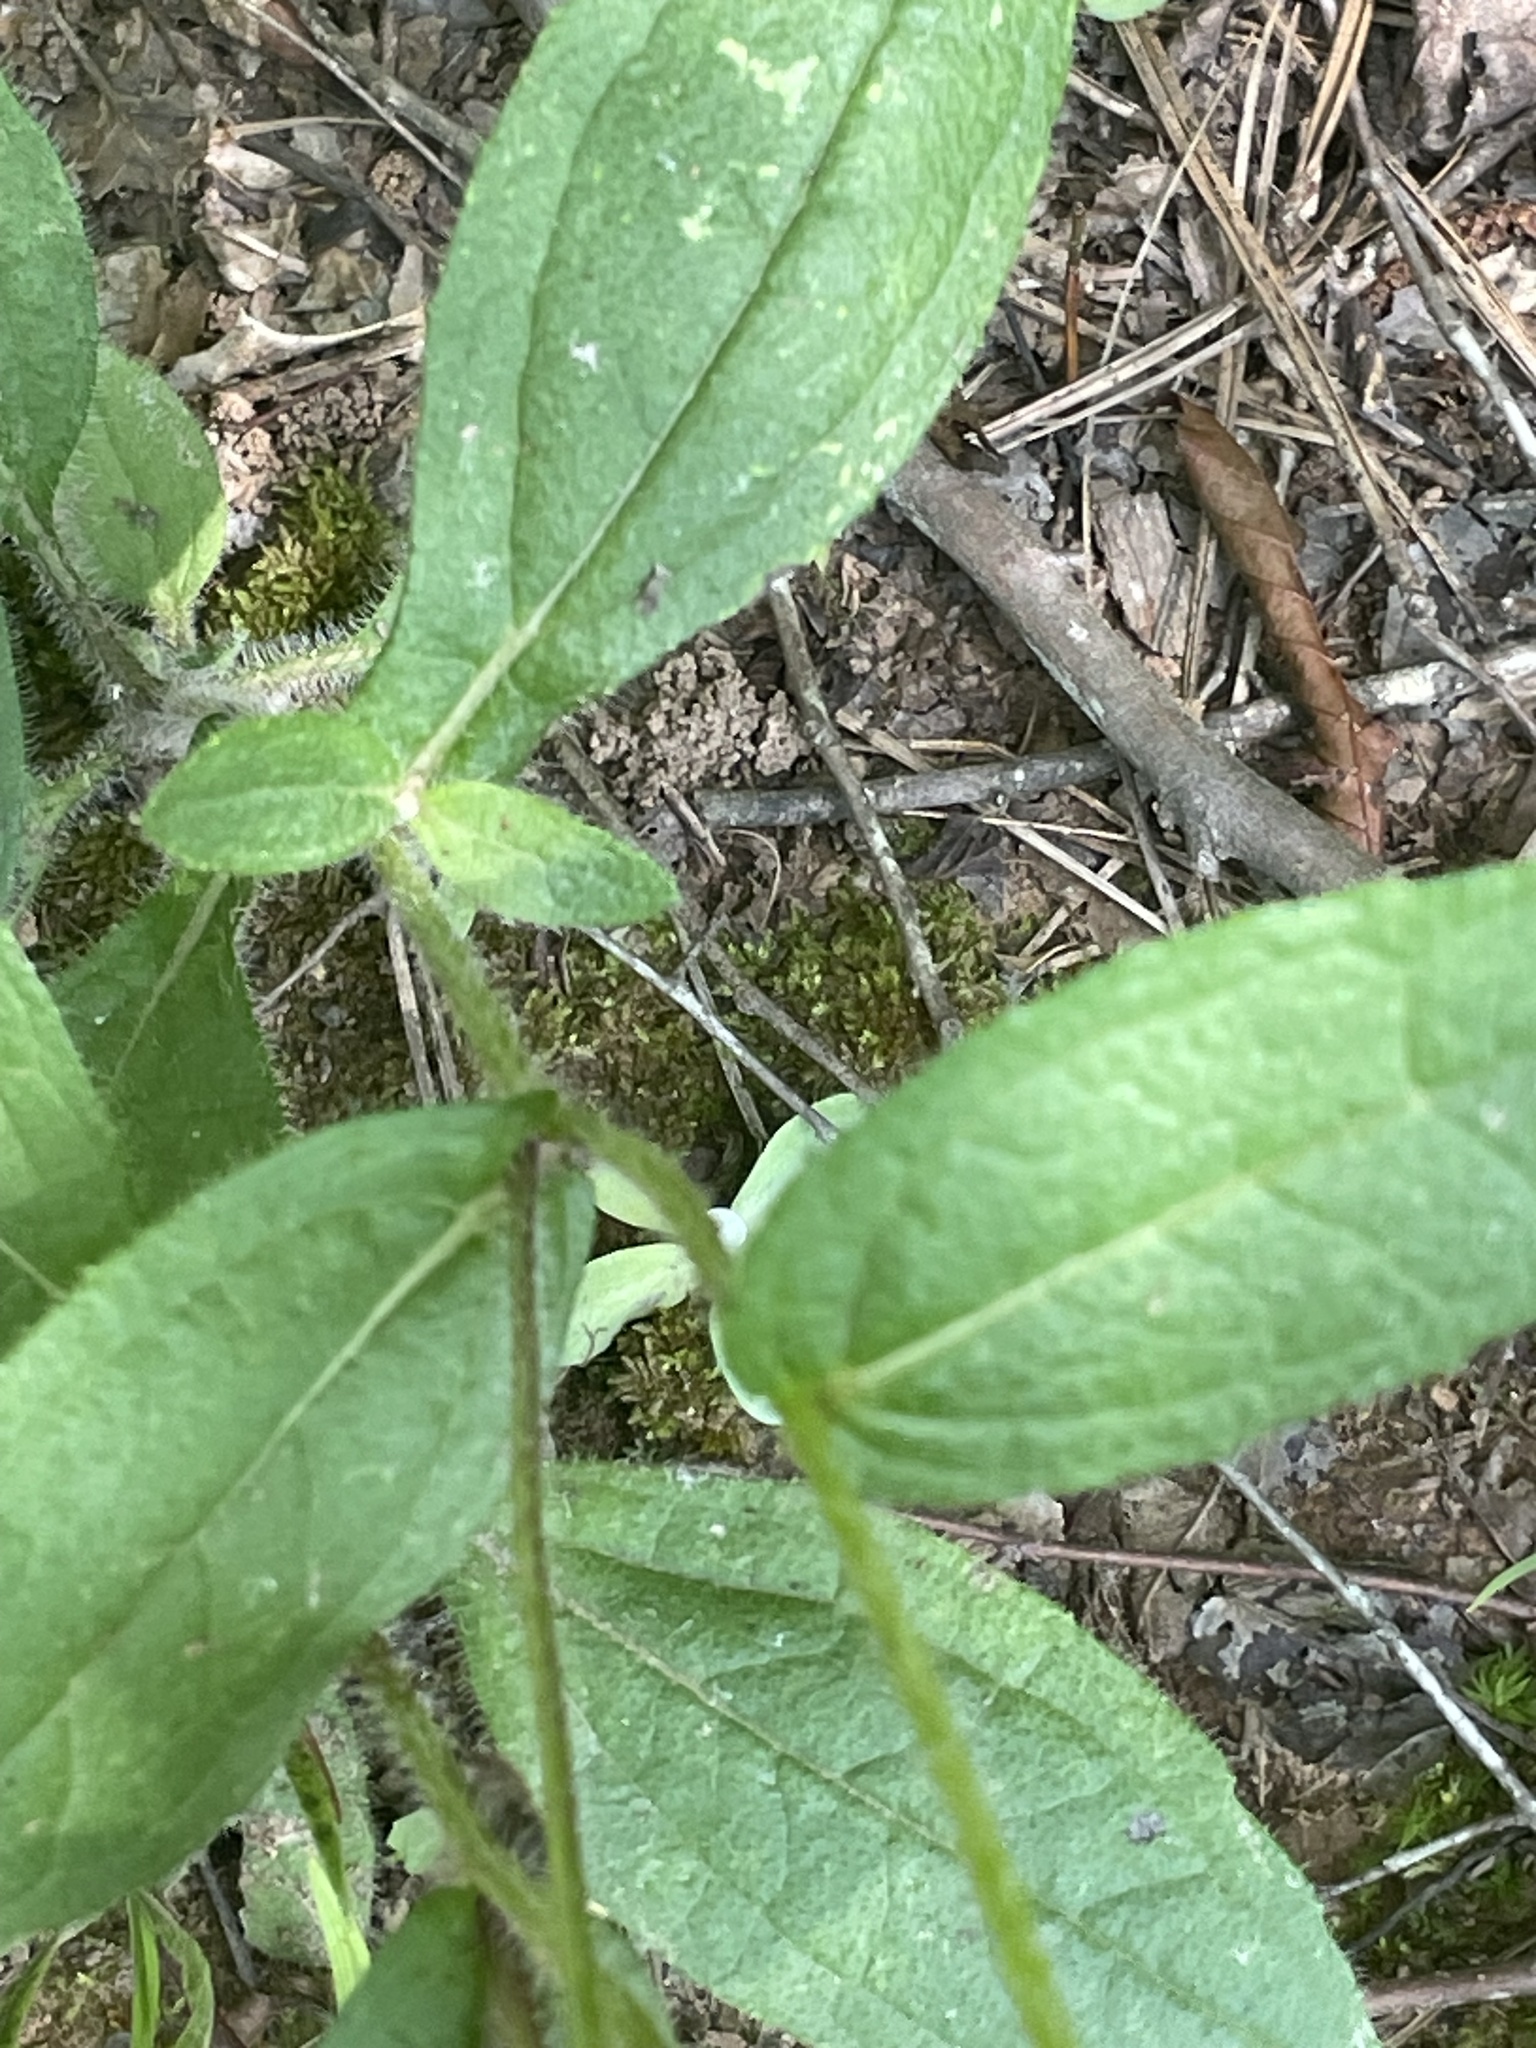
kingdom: Plantae
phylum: Tracheophyta
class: Magnoliopsida
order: Asterales
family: Asteraceae
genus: Rudbeckia
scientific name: Rudbeckia hirta
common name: Black-eyed-susan
